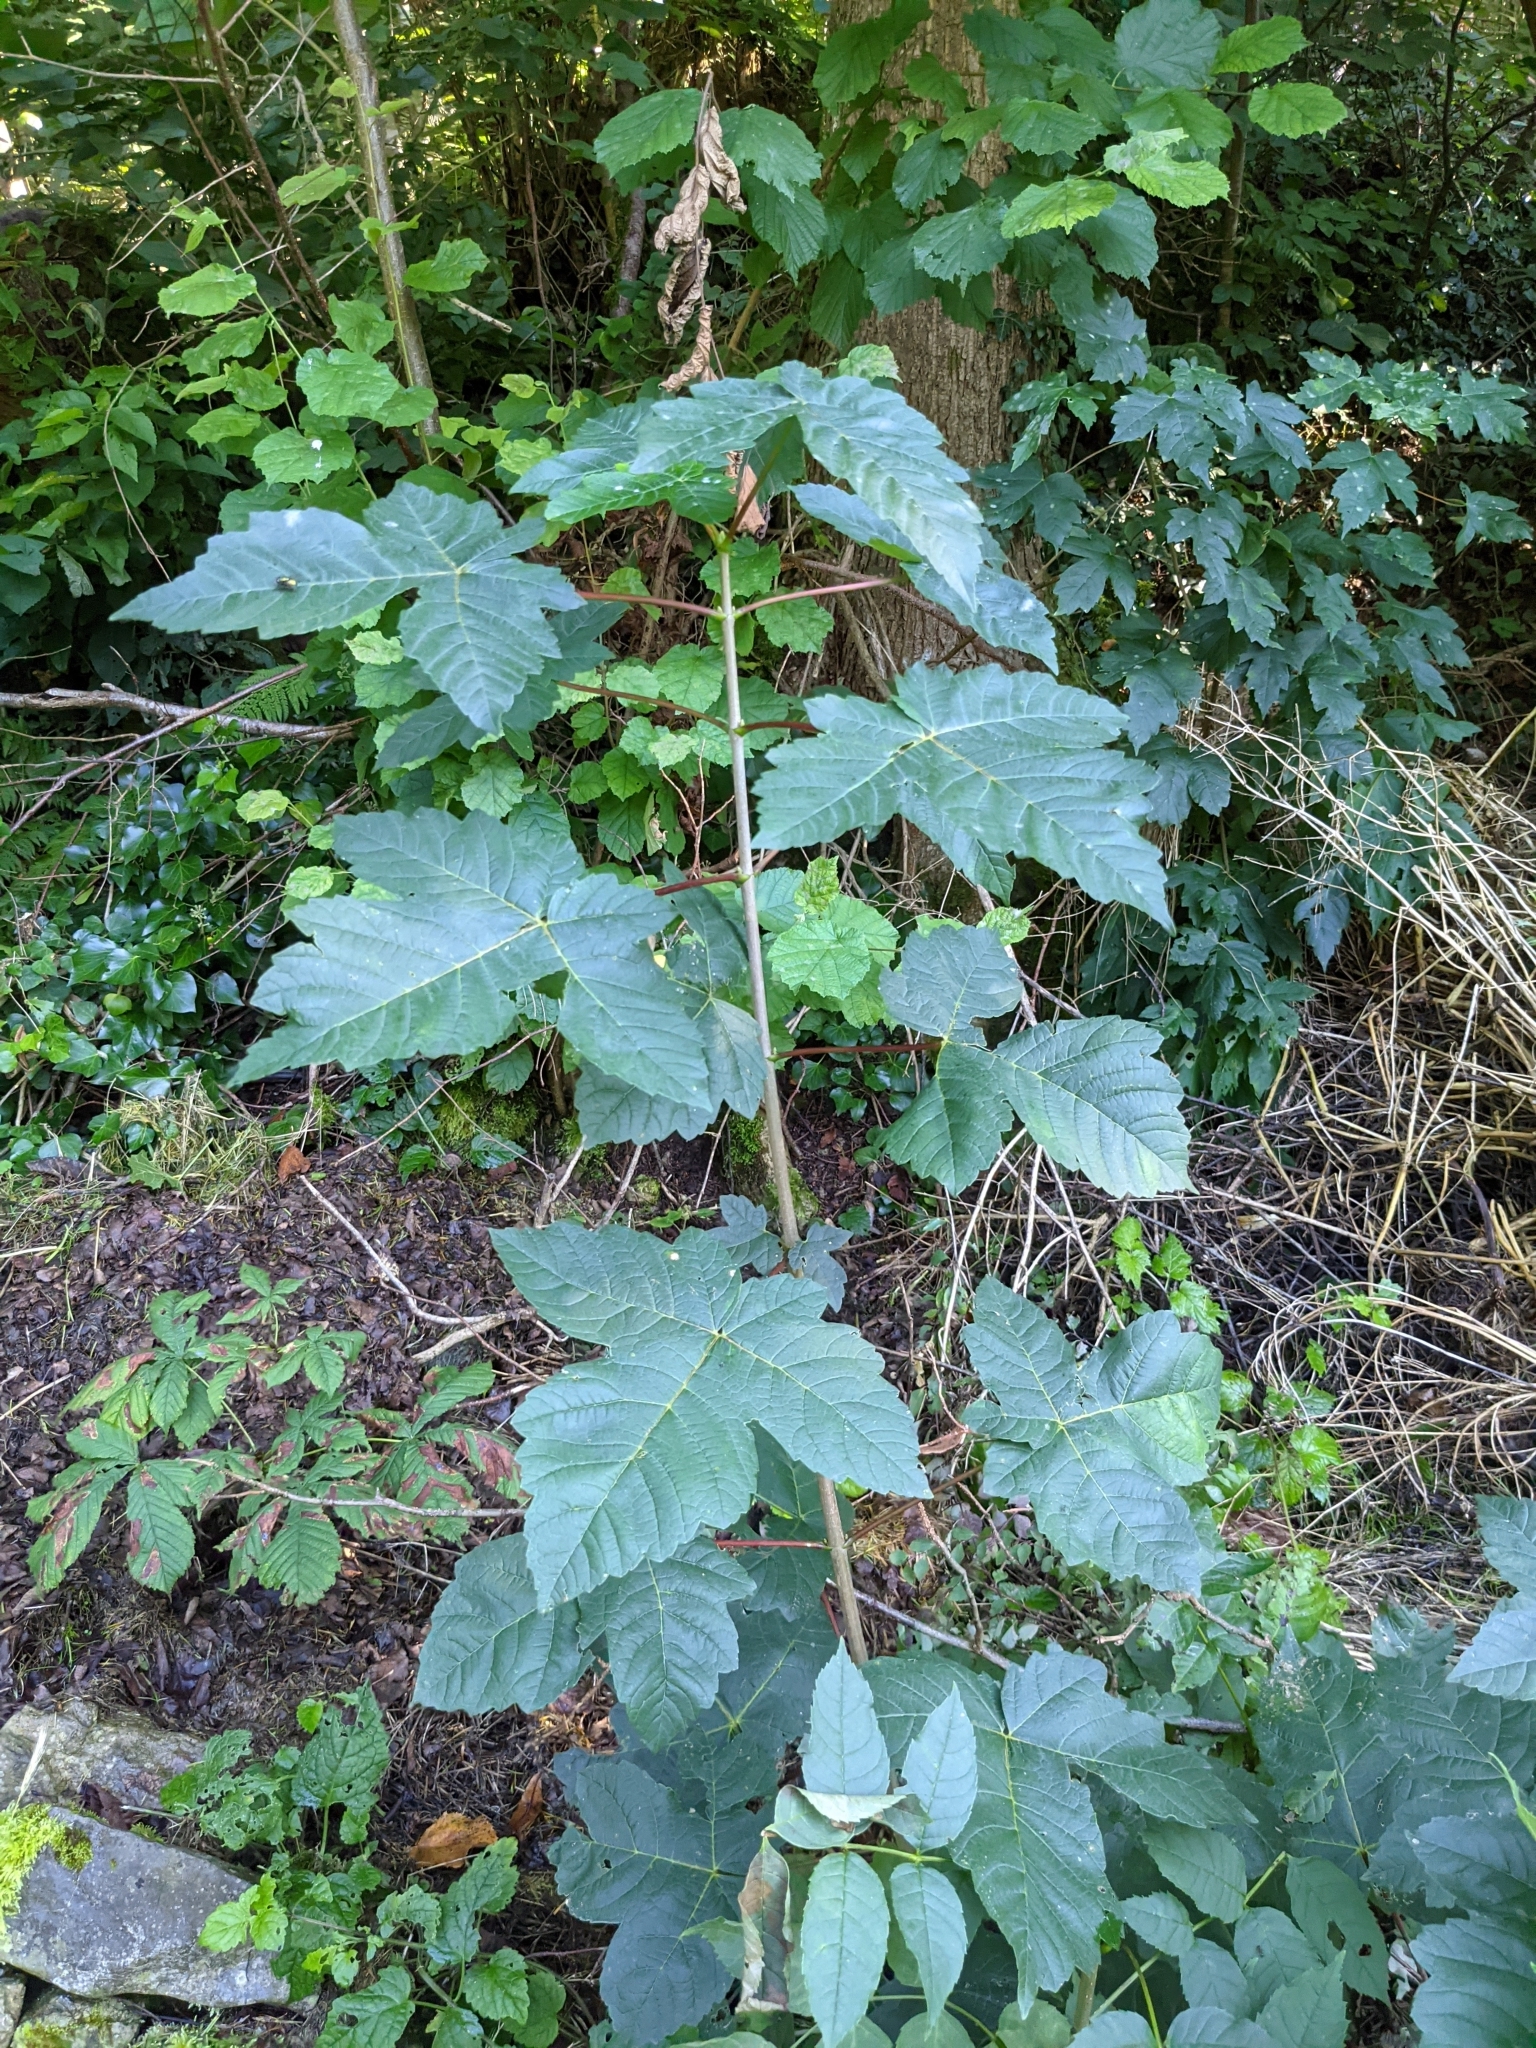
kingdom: Plantae
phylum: Tracheophyta
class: Magnoliopsida
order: Sapindales
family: Sapindaceae
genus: Acer
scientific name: Acer pseudoplatanus
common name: Sycamore
